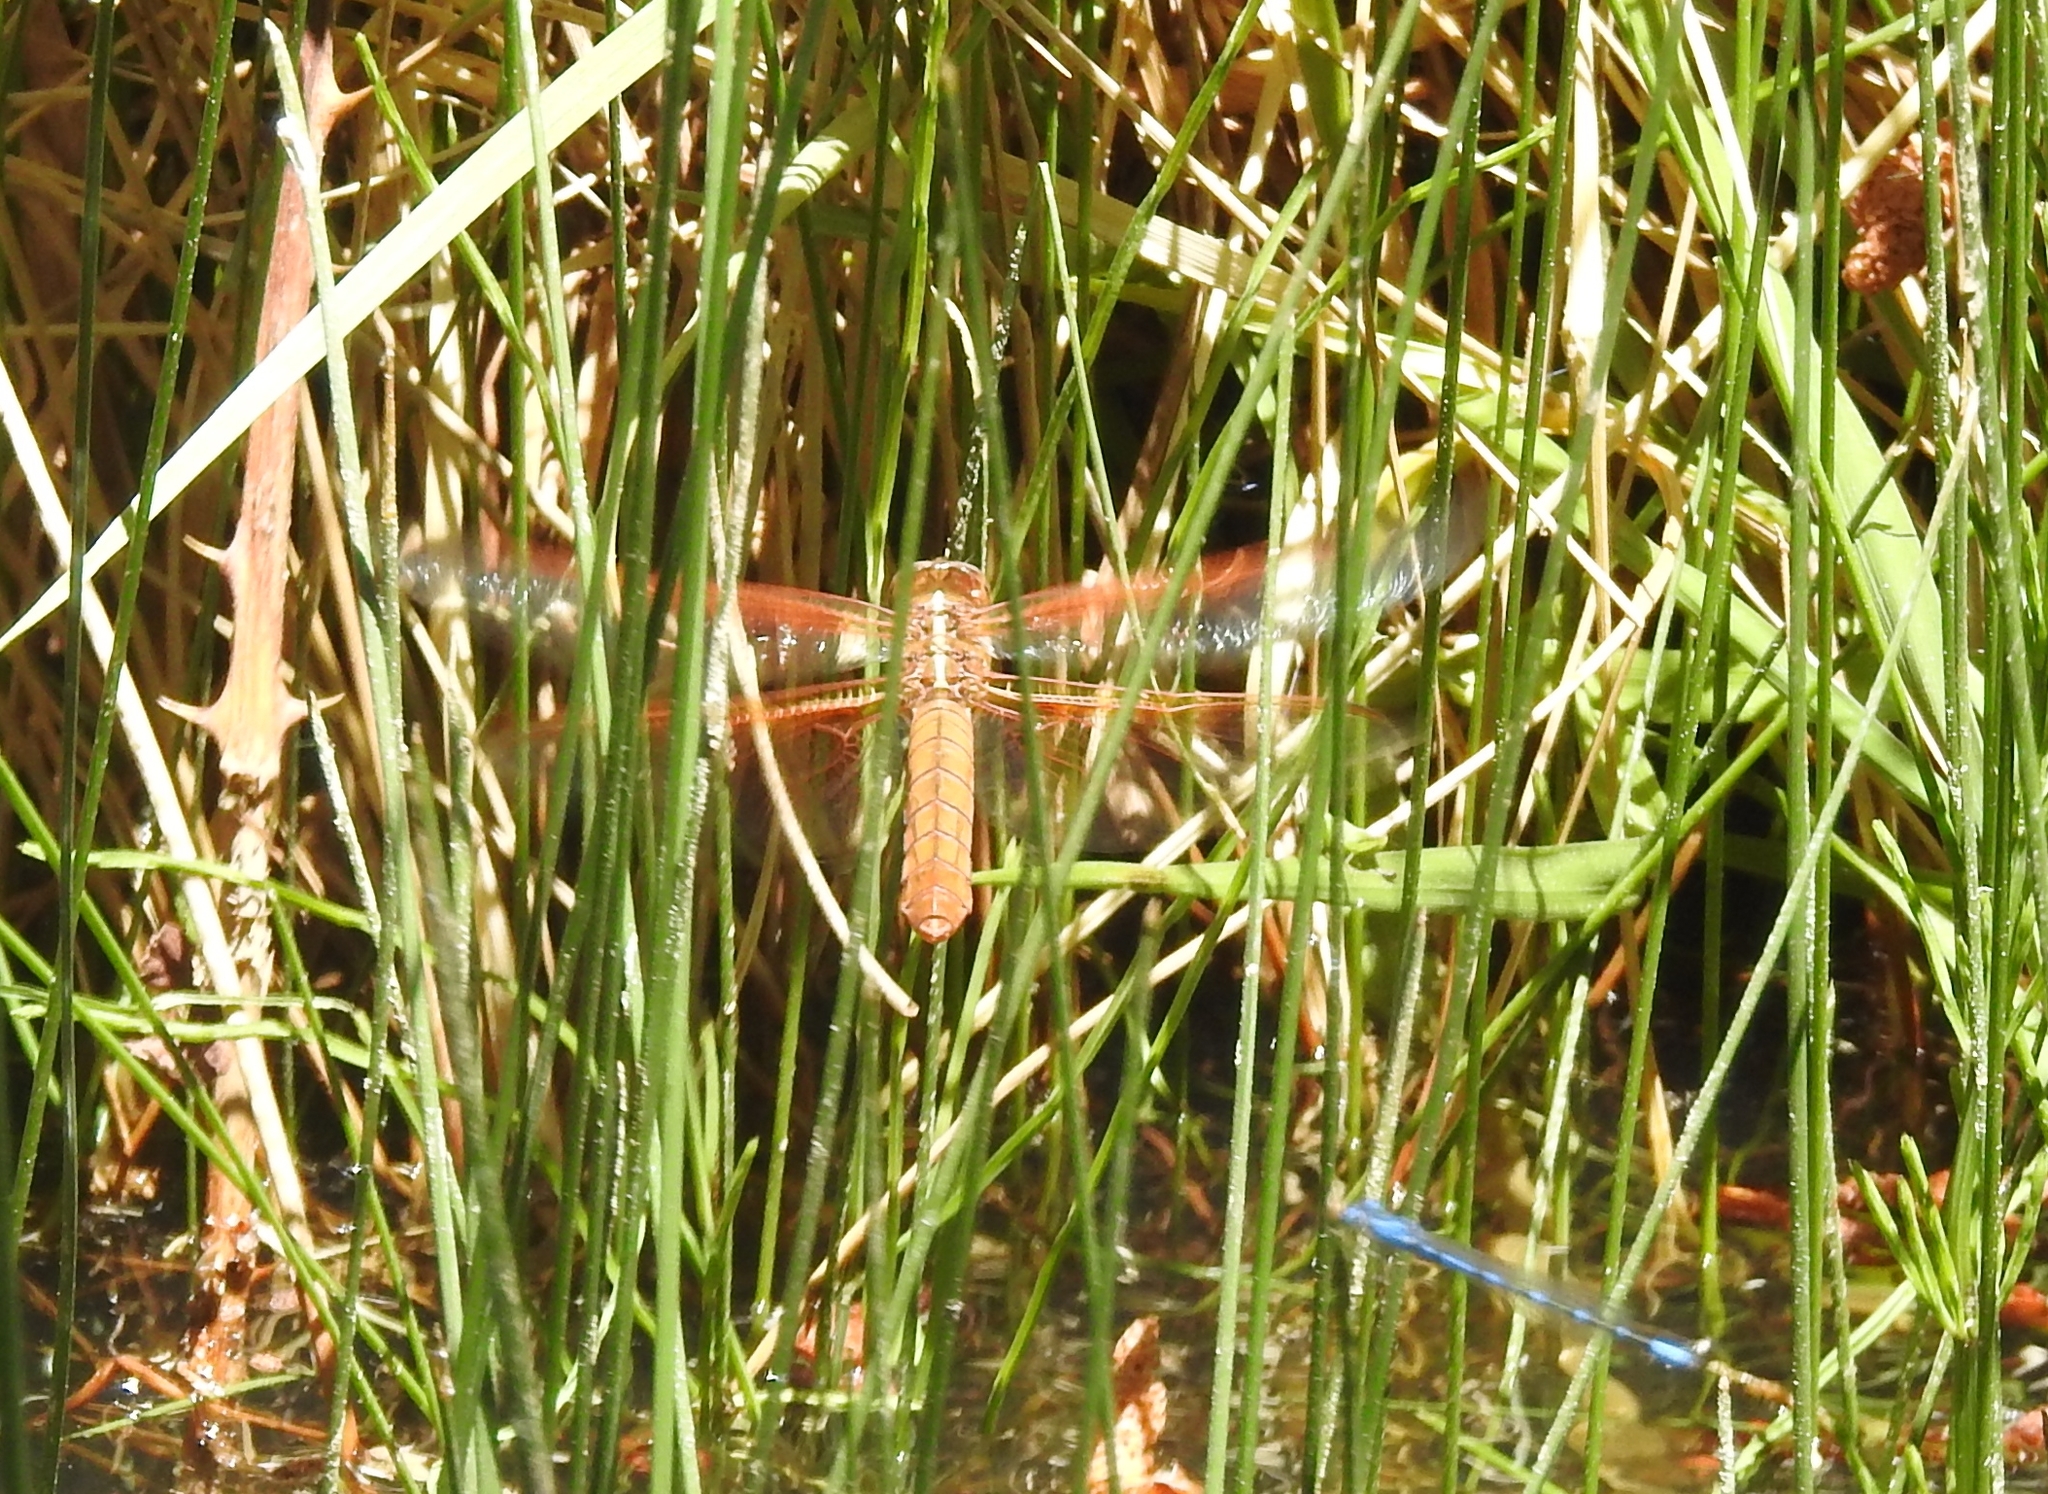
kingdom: Animalia
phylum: Arthropoda
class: Insecta
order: Odonata
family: Libellulidae
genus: Libellula
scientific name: Libellula saturata
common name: Flame skimmer
